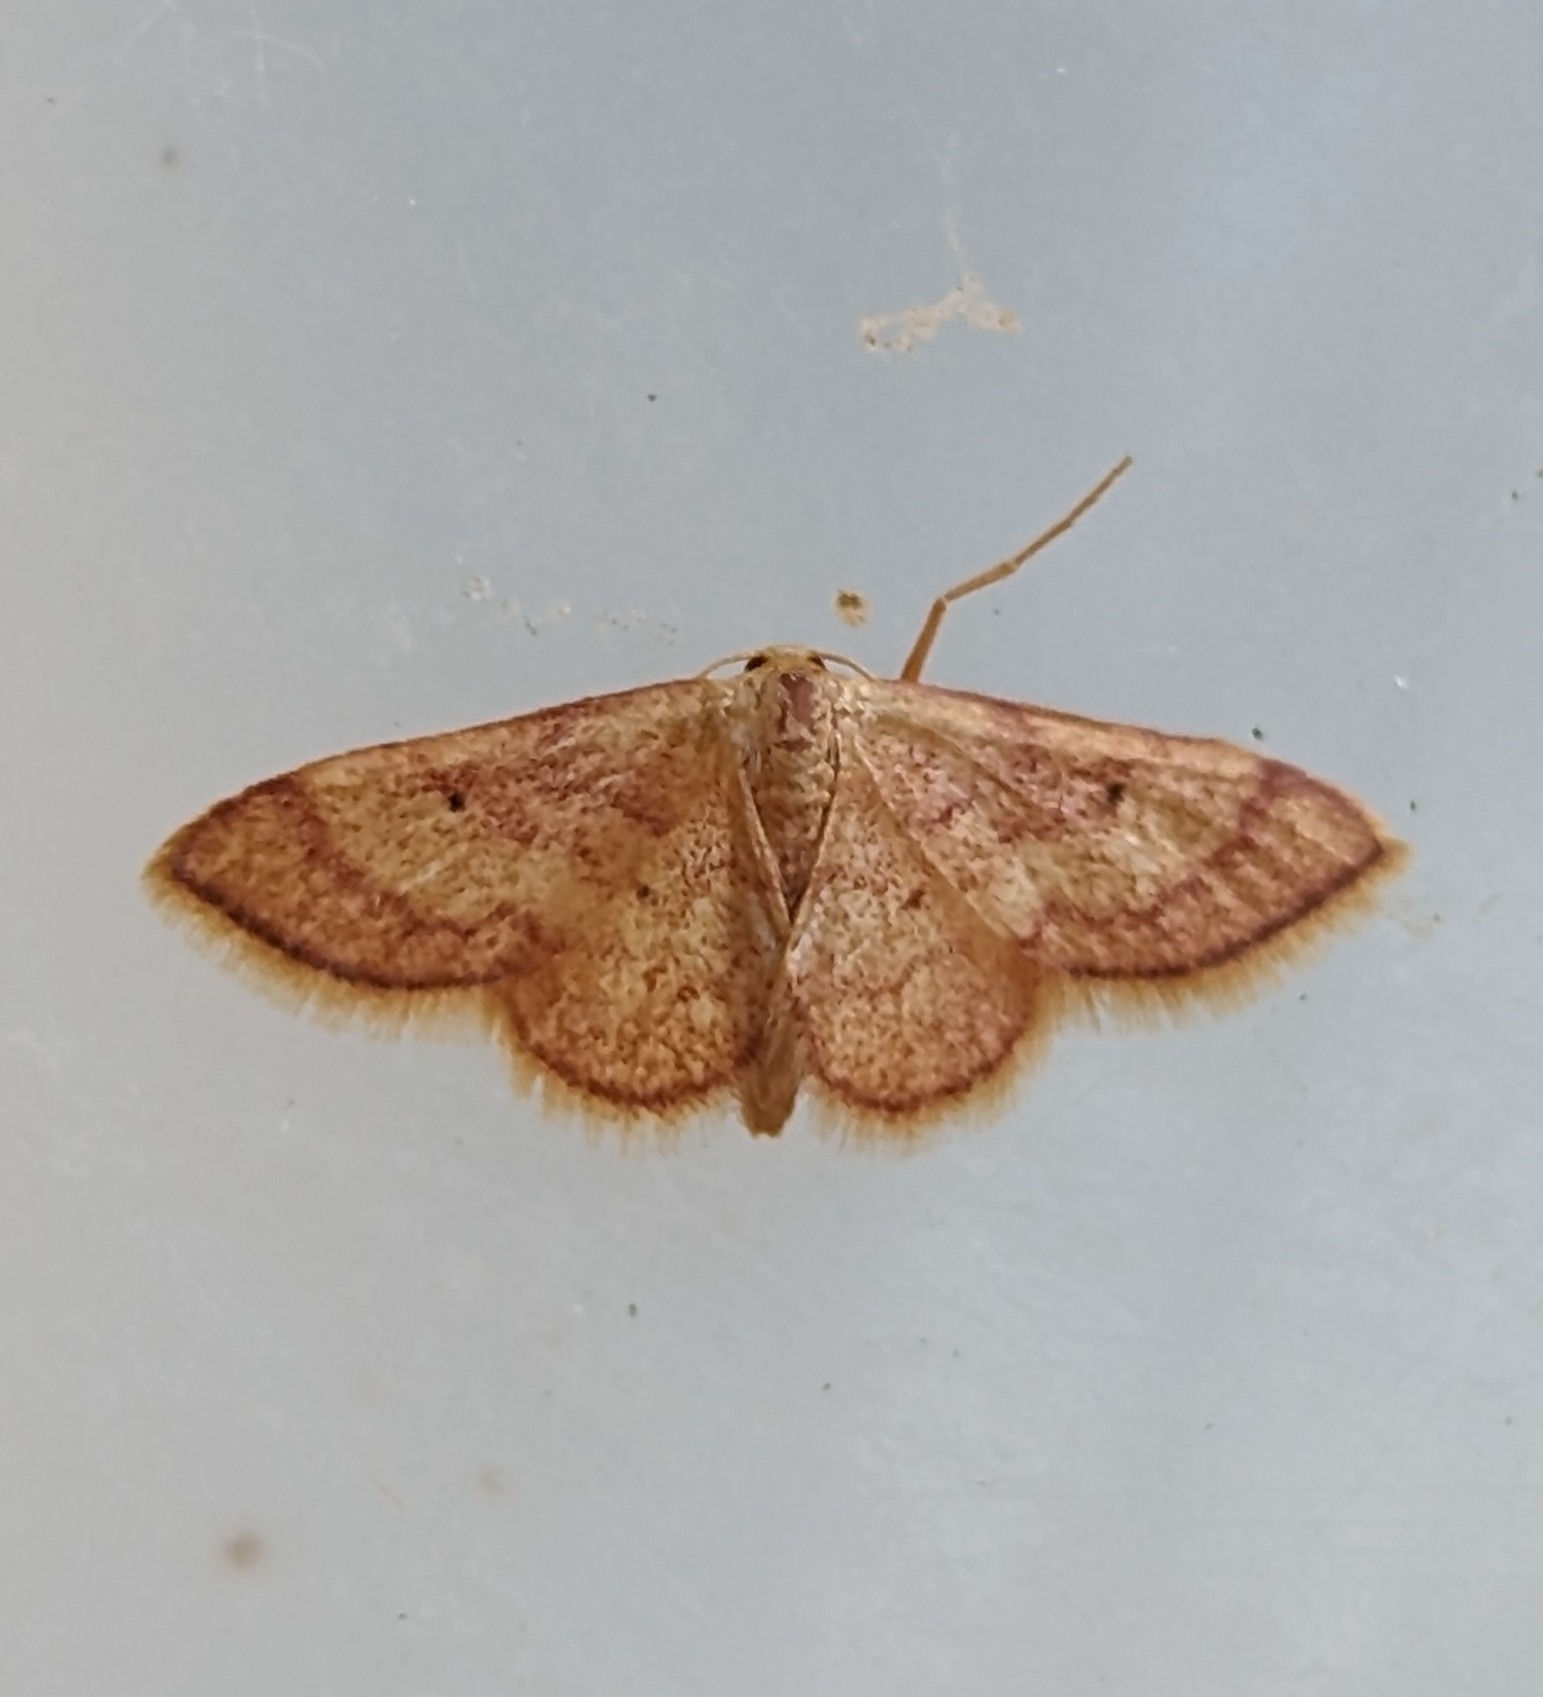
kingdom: Animalia
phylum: Arthropoda
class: Insecta
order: Lepidoptera
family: Geometridae
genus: Idaea
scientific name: Idaea demissaria
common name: Red-bordered wave
